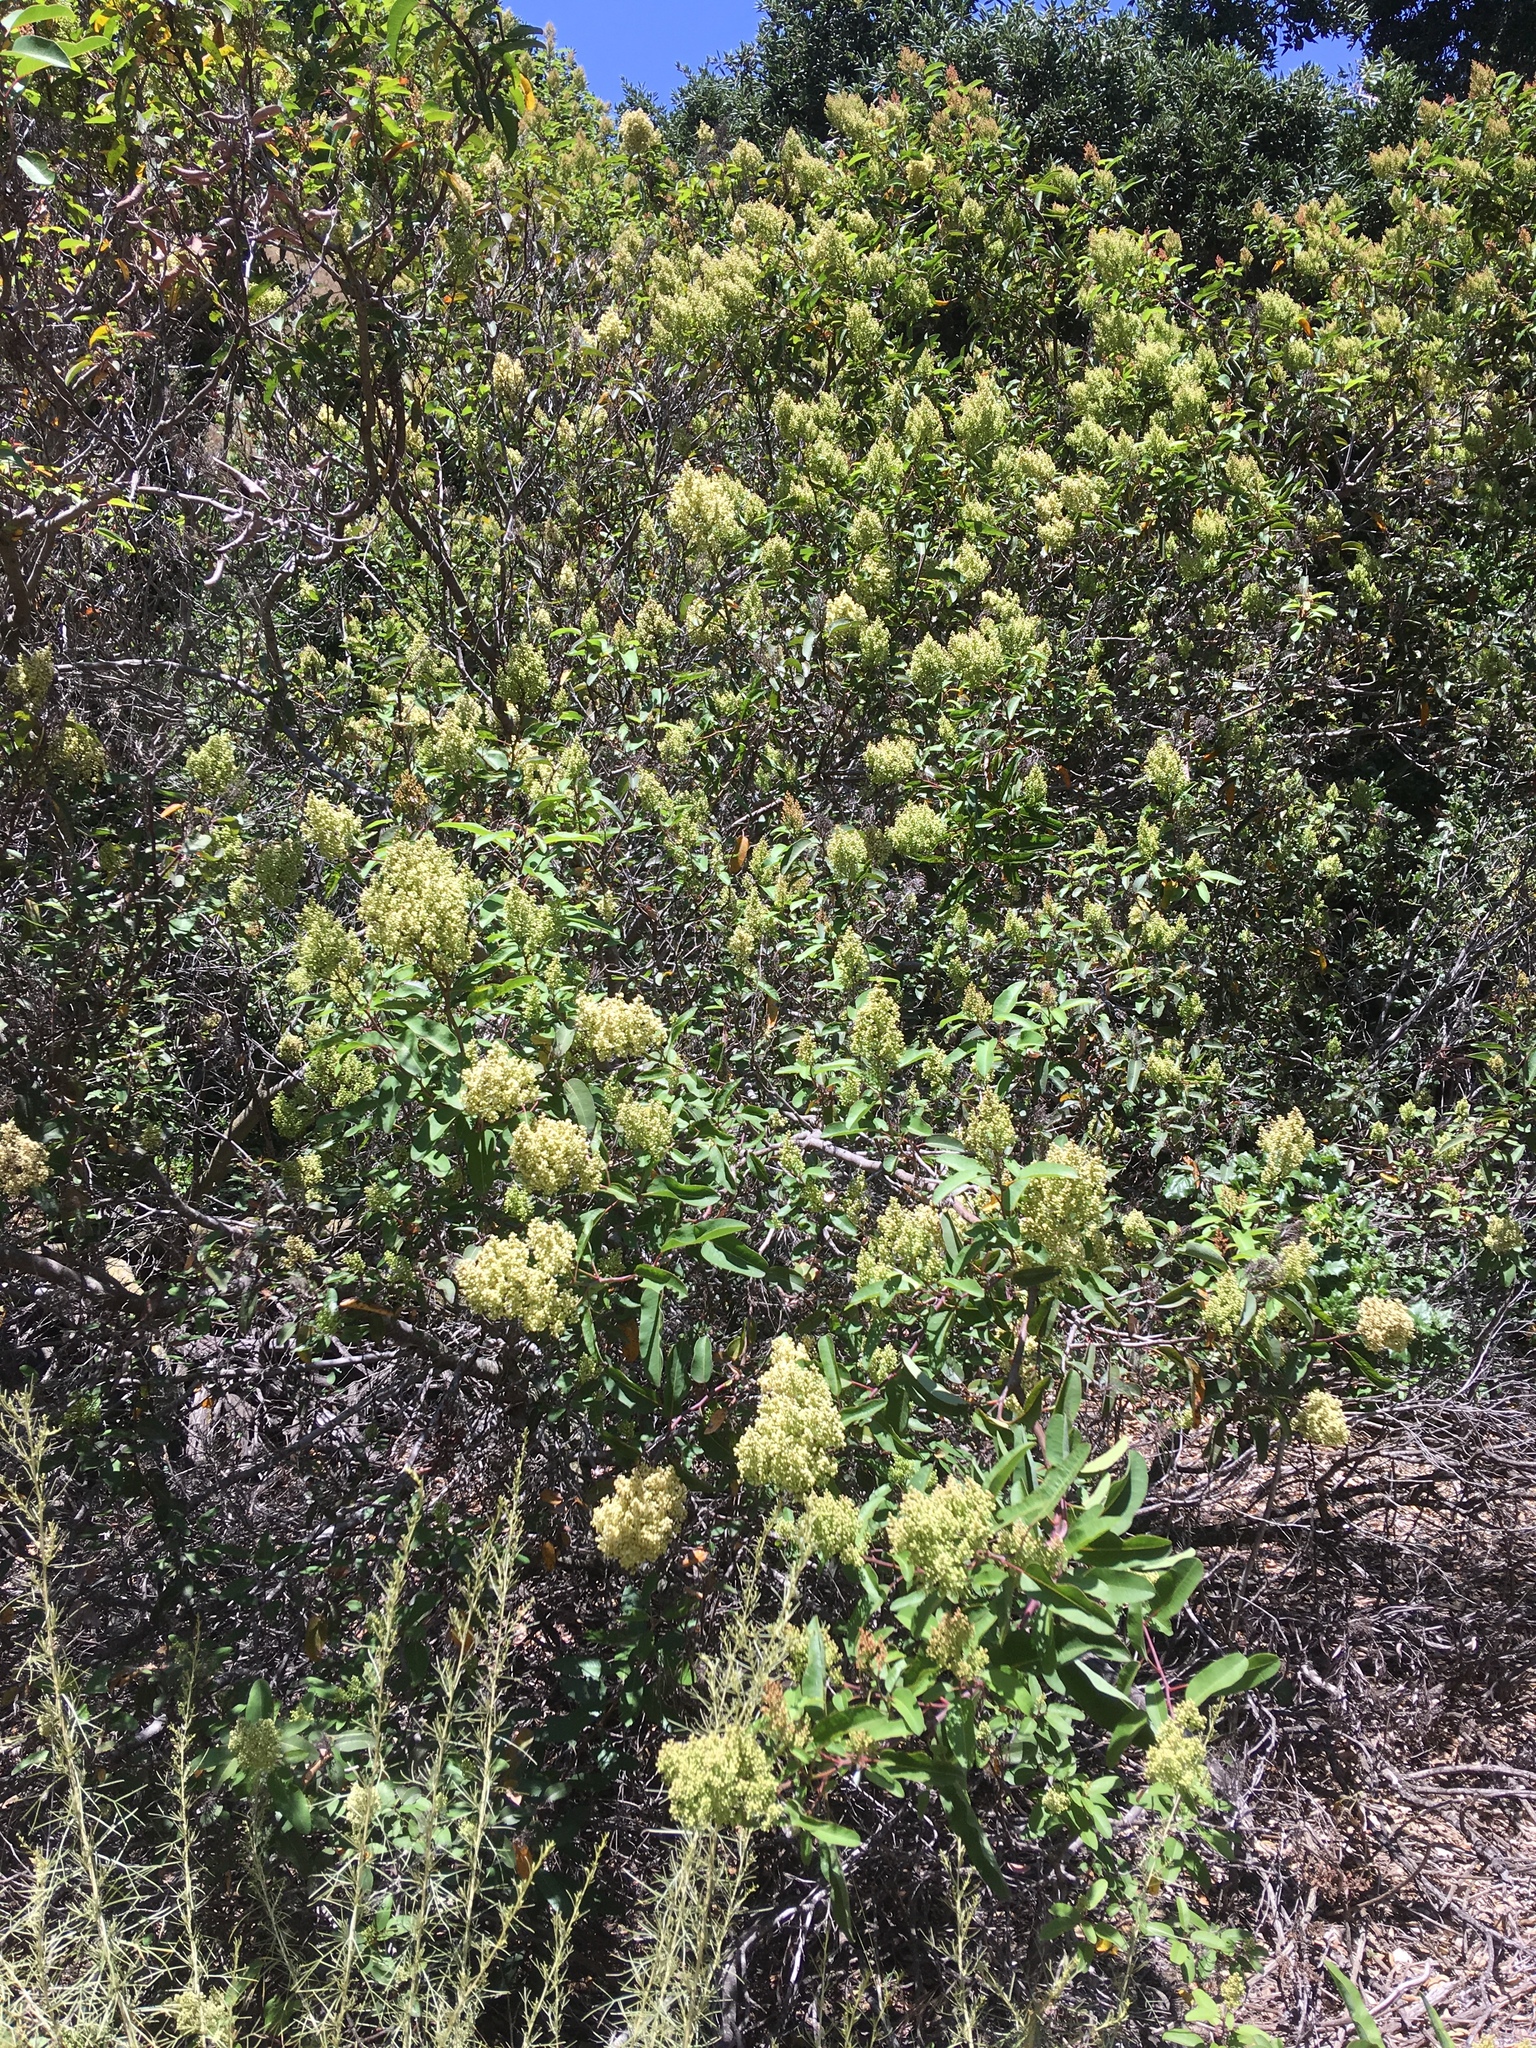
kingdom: Plantae
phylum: Tracheophyta
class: Magnoliopsida
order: Sapindales
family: Anacardiaceae
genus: Malosma
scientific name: Malosma laurina
